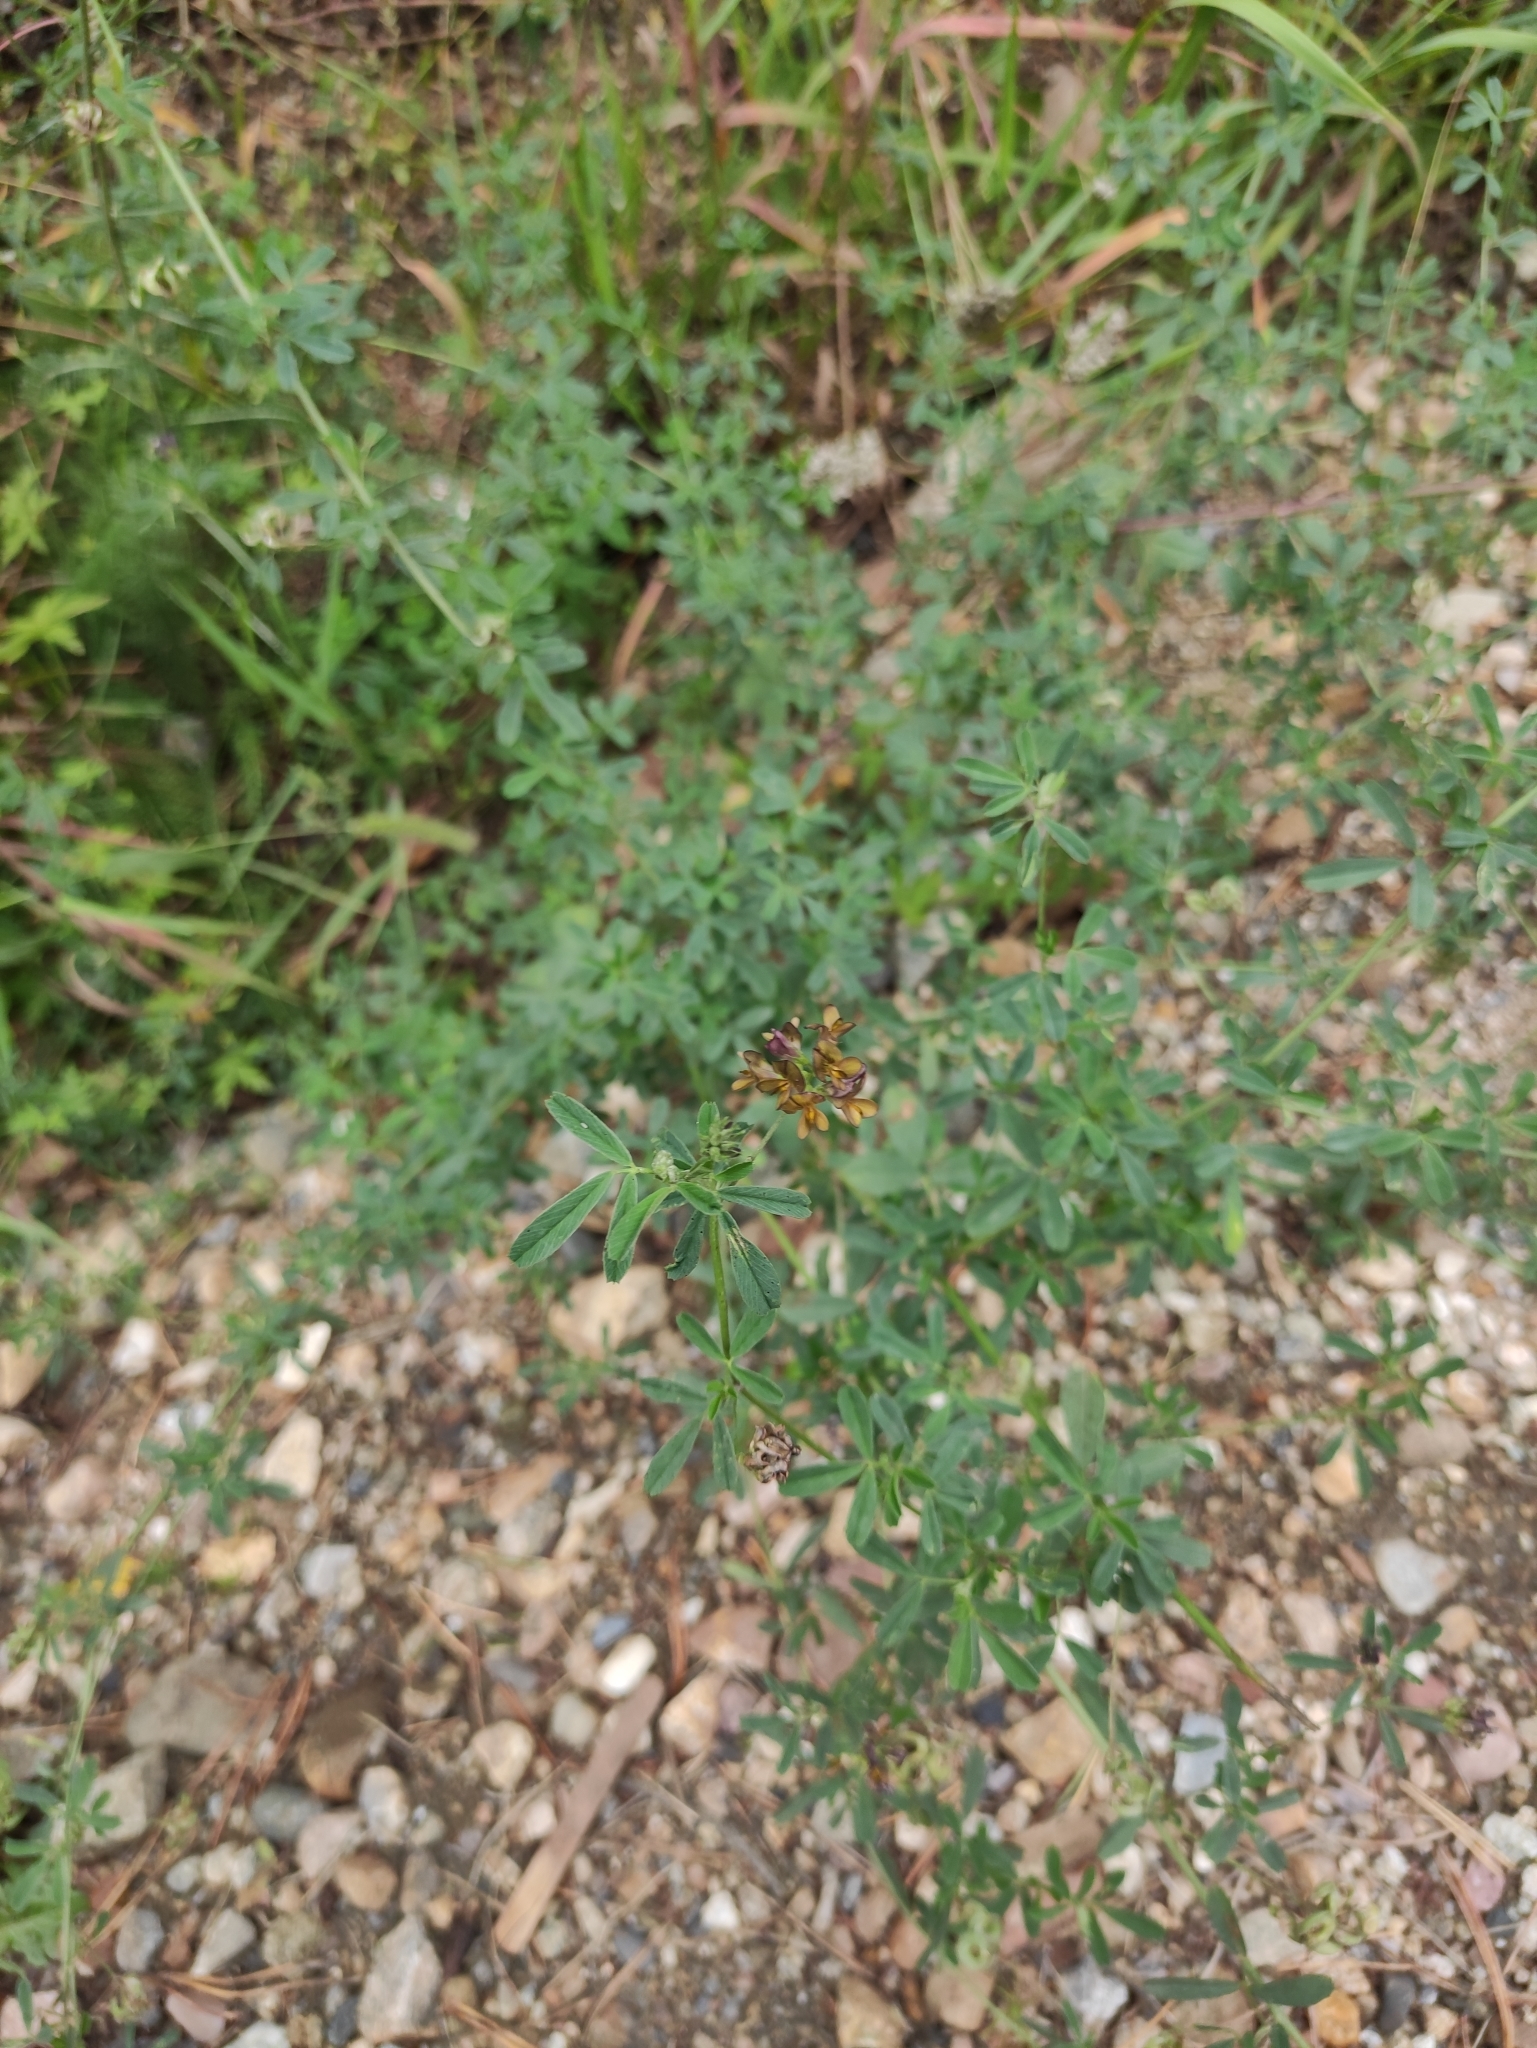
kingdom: Plantae
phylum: Tracheophyta
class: Magnoliopsida
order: Fabales
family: Fabaceae
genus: Medicago
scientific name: Medicago varia
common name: Sand lucerne
